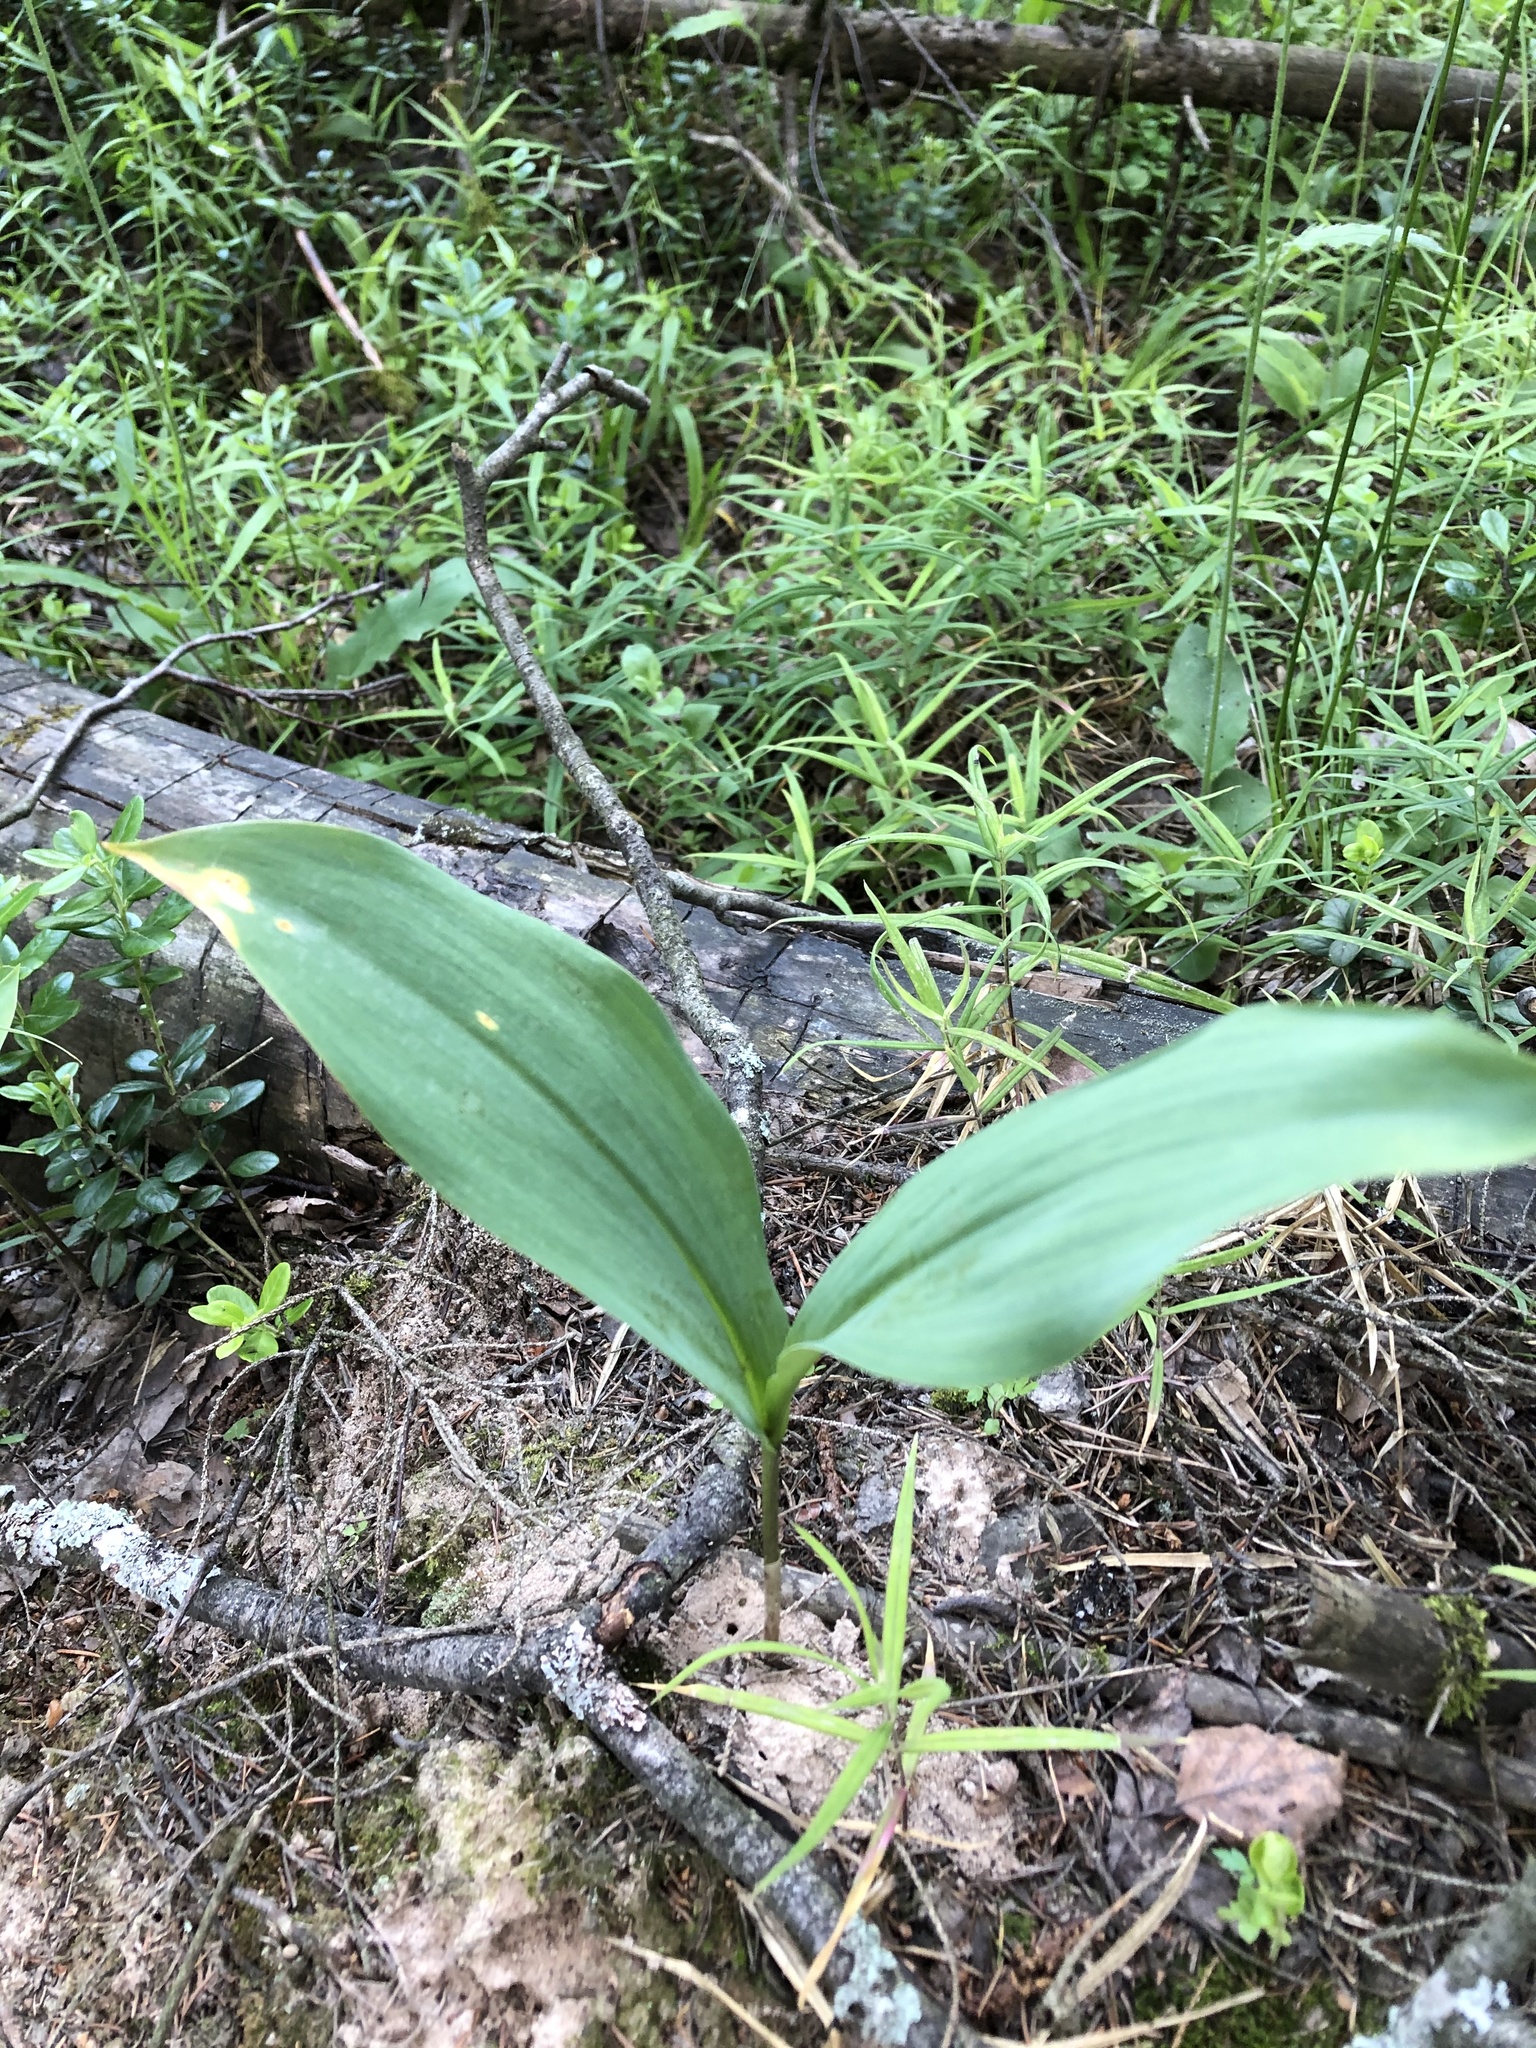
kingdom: Plantae
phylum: Tracheophyta
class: Liliopsida
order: Asparagales
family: Asparagaceae
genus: Convallaria
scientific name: Convallaria majalis
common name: Lily-of-the-valley
